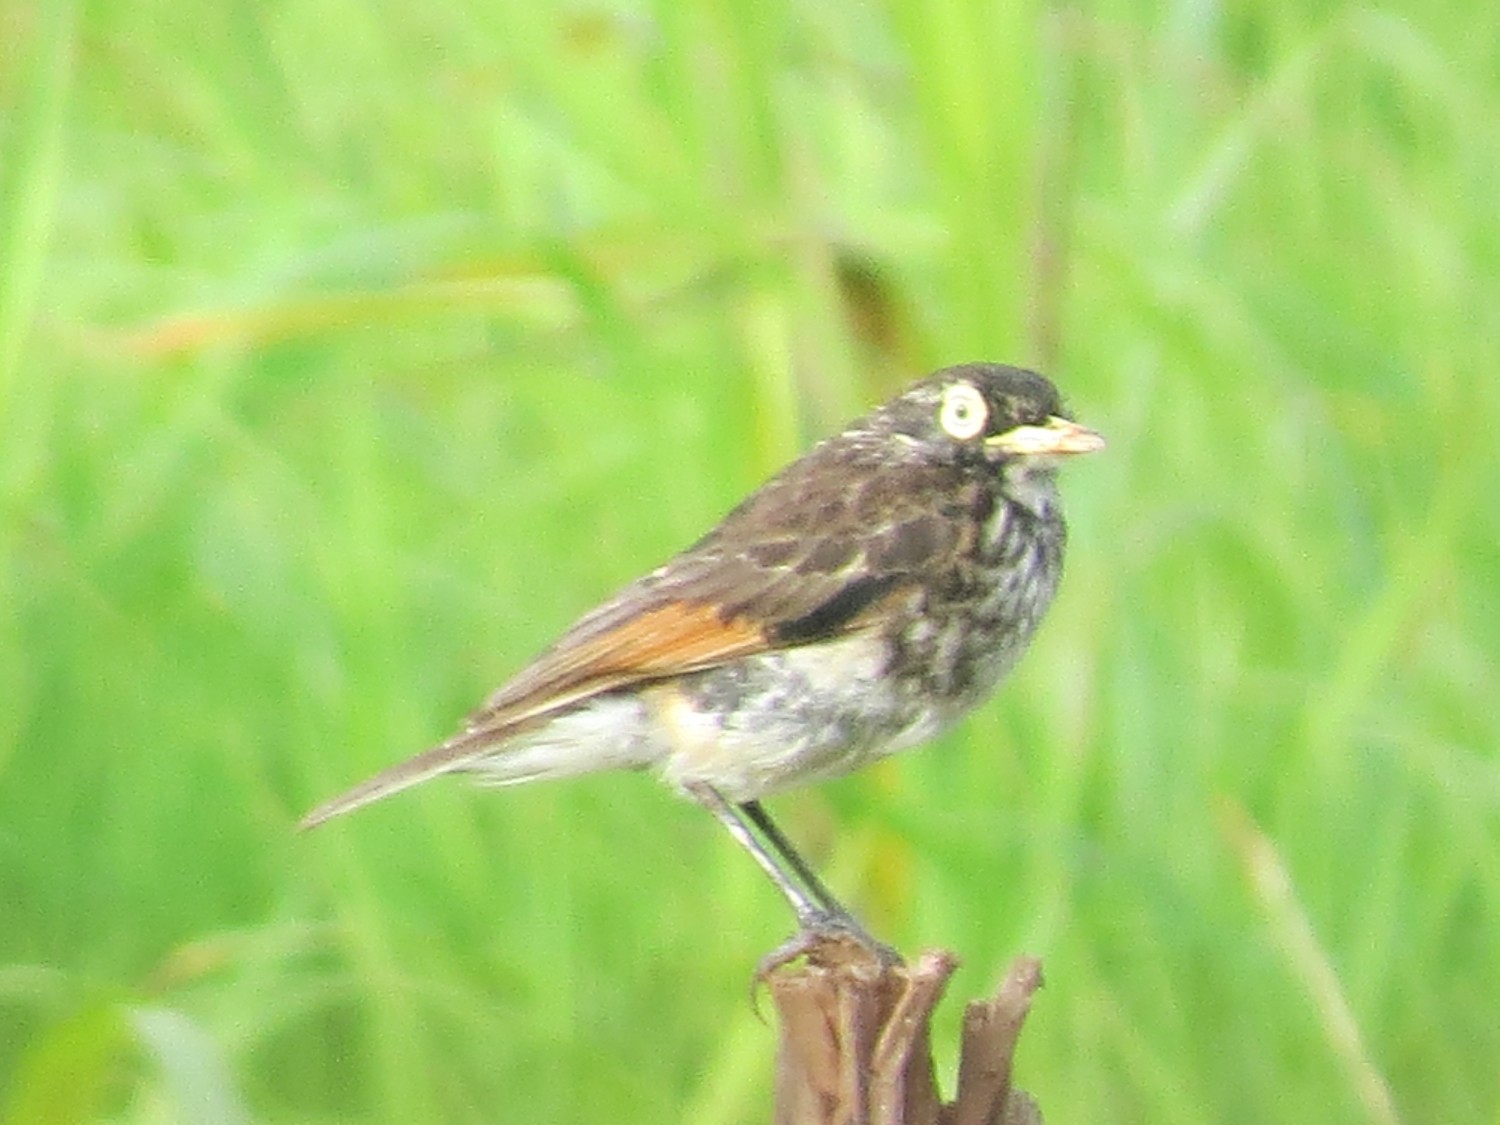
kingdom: Animalia
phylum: Chordata
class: Aves
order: Passeriformes
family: Tyrannidae
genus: Hymenops
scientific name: Hymenops perspicillatus
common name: Spectacled tyrant
